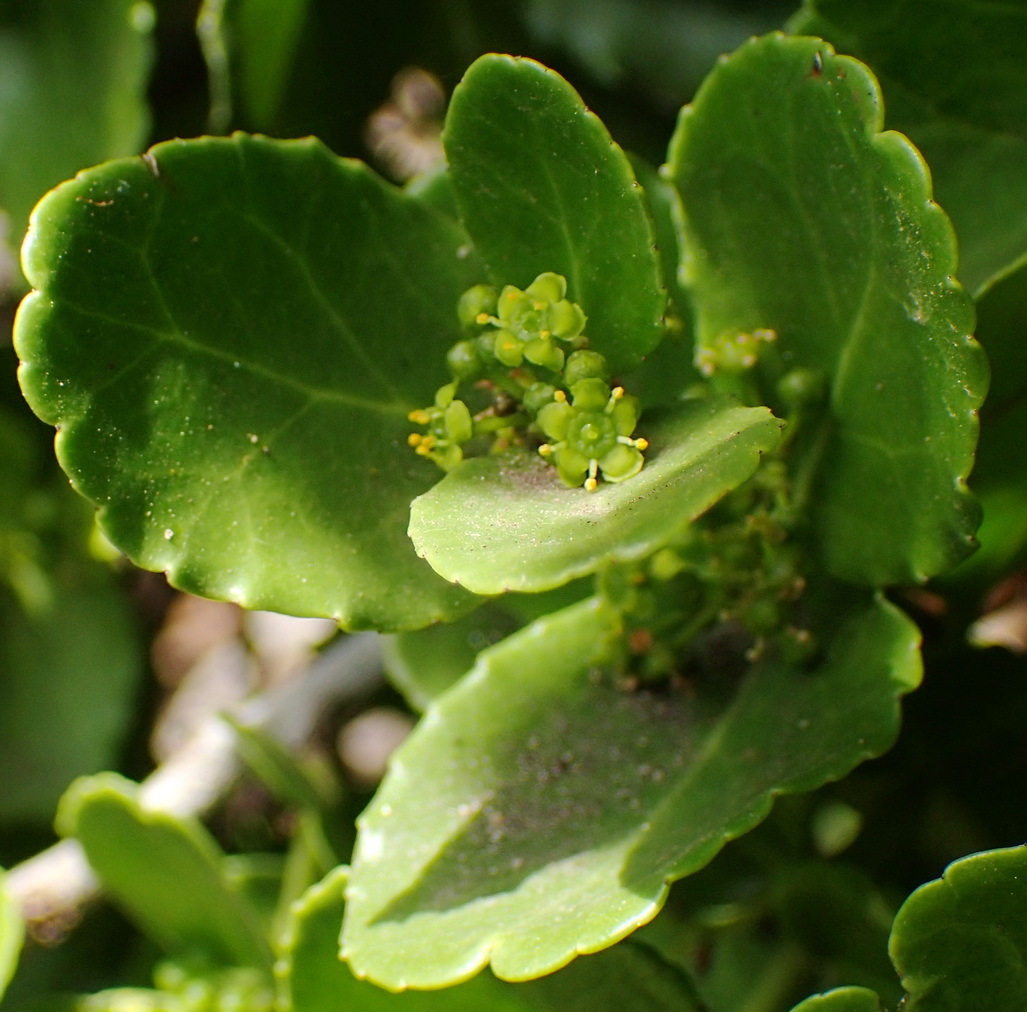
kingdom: Plantae
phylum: Tracheophyta
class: Magnoliopsida
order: Celastrales
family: Celastraceae
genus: Mystroxylon
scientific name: Mystroxylon aethiopicum
